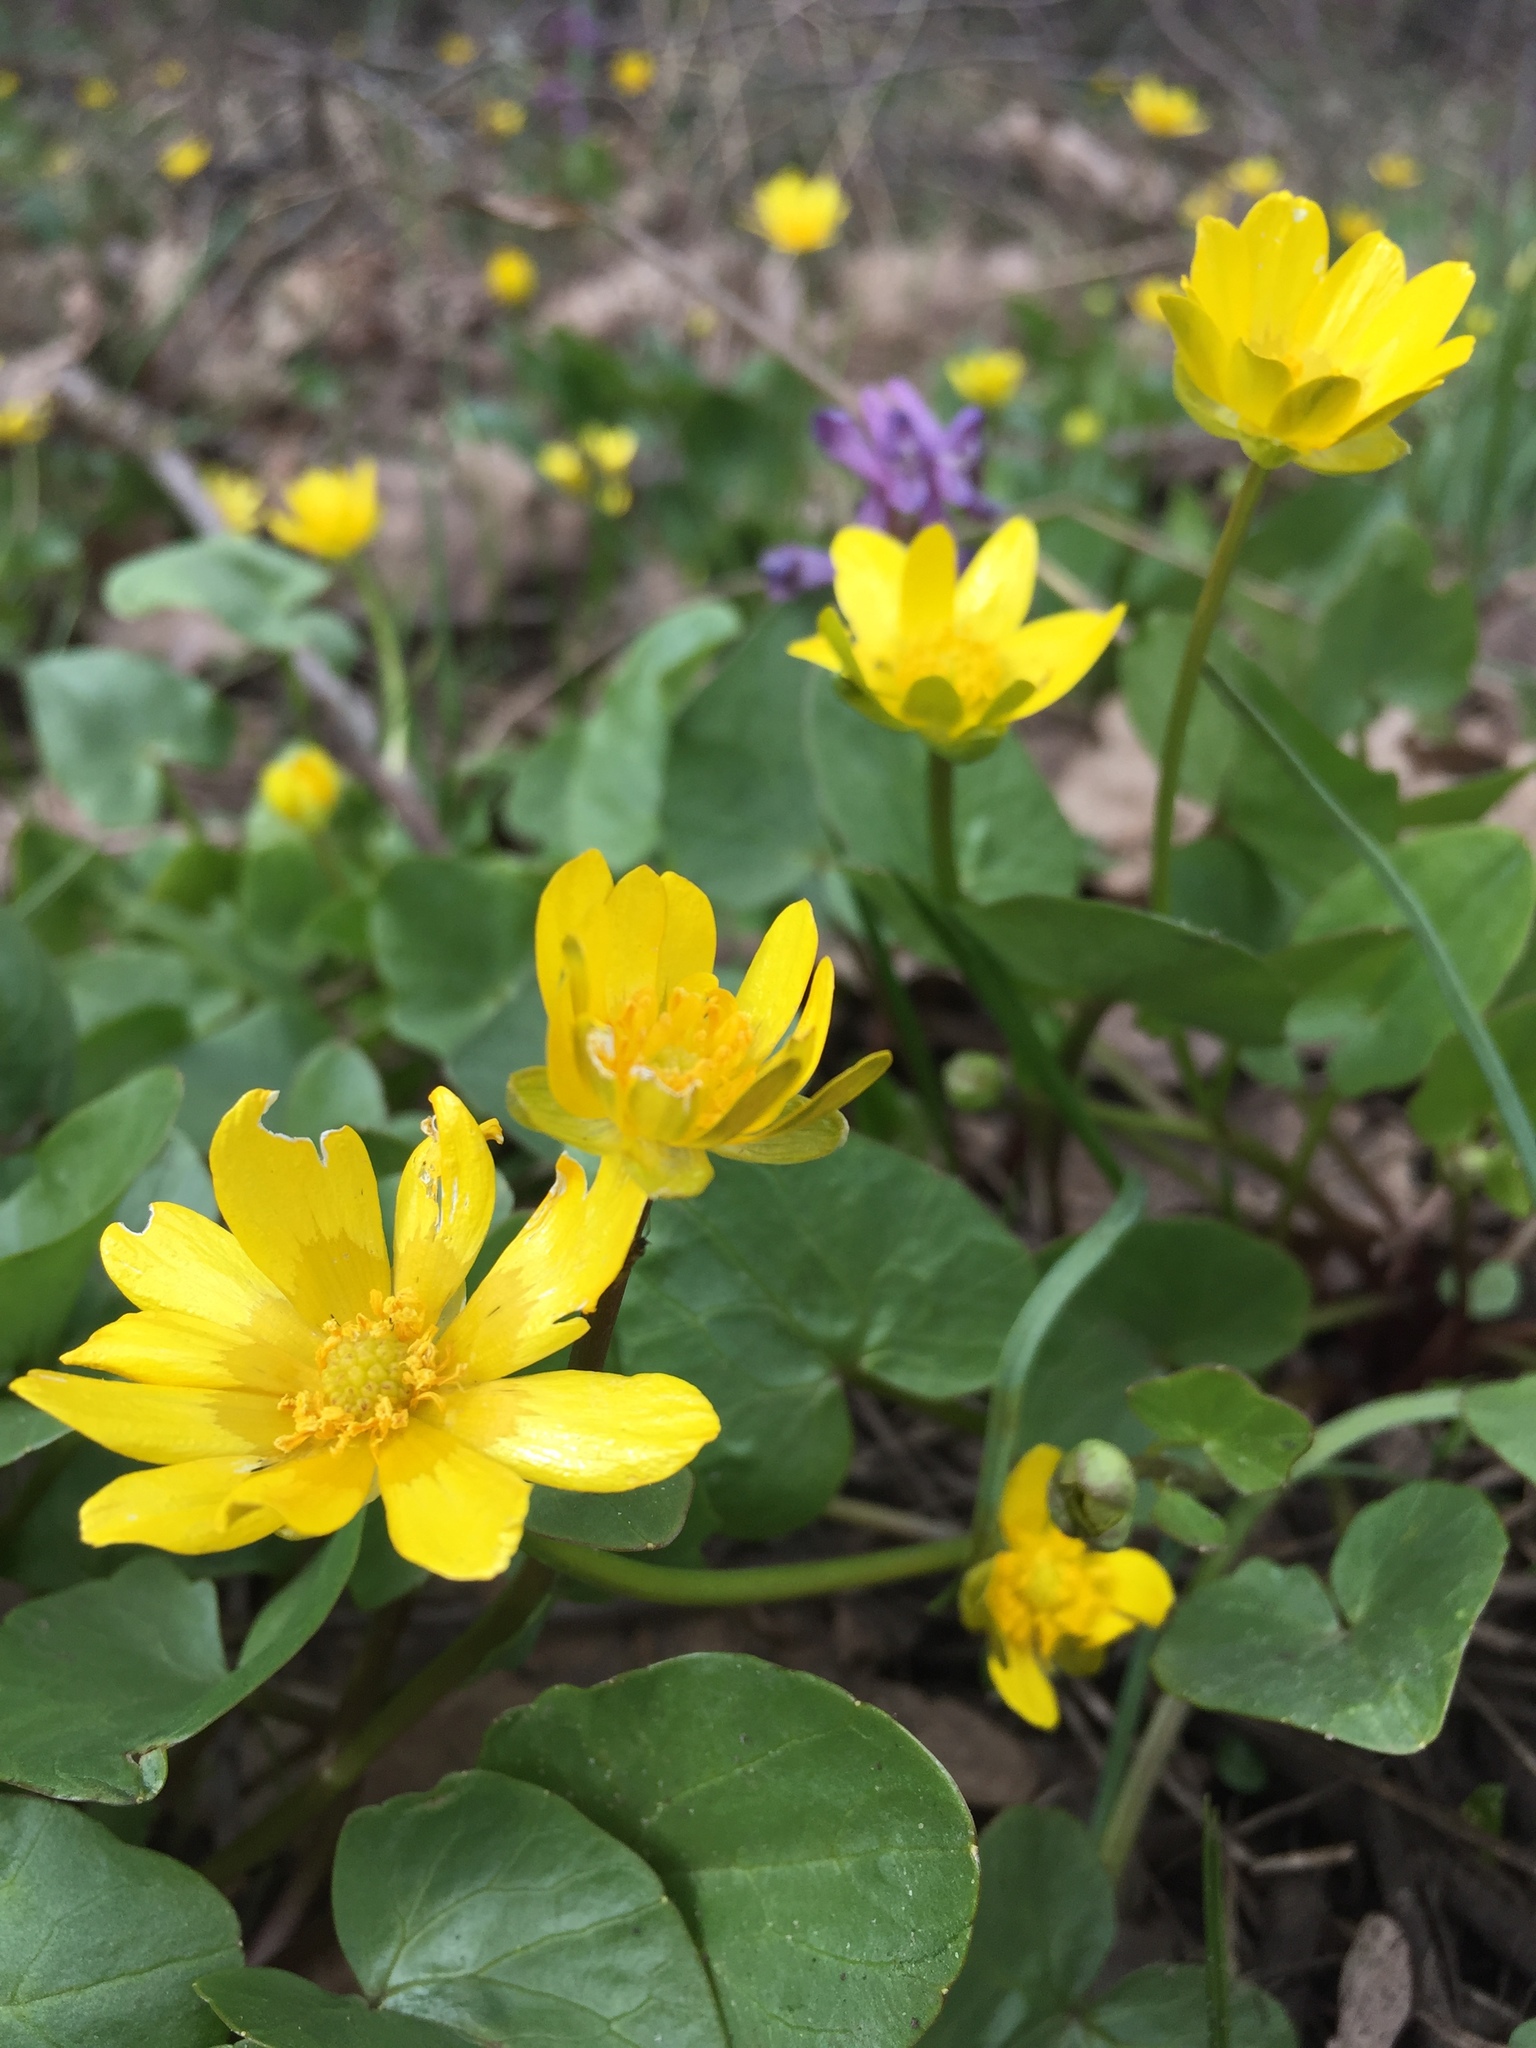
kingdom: Plantae
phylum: Tracheophyta
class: Magnoliopsida
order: Ranunculales
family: Ranunculaceae
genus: Ficaria
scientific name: Ficaria verna
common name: Lesser celandine
